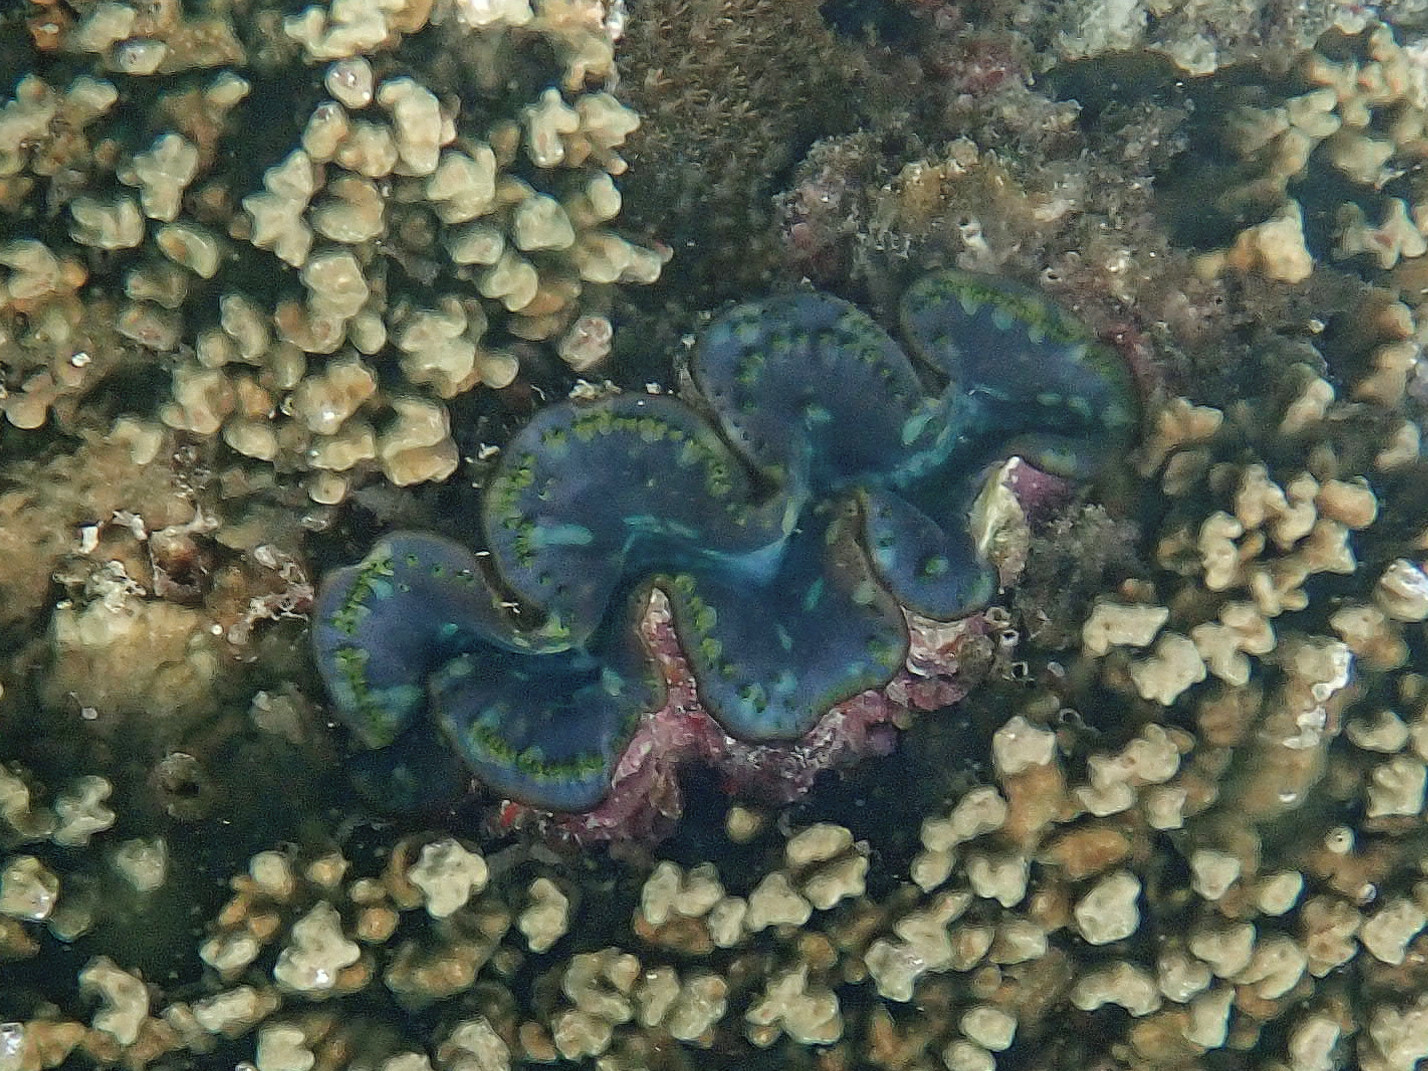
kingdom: Animalia
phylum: Mollusca
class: Bivalvia
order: Cardiida
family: Cardiidae
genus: Tridacna
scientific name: Tridacna maxima
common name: Small giant clam
